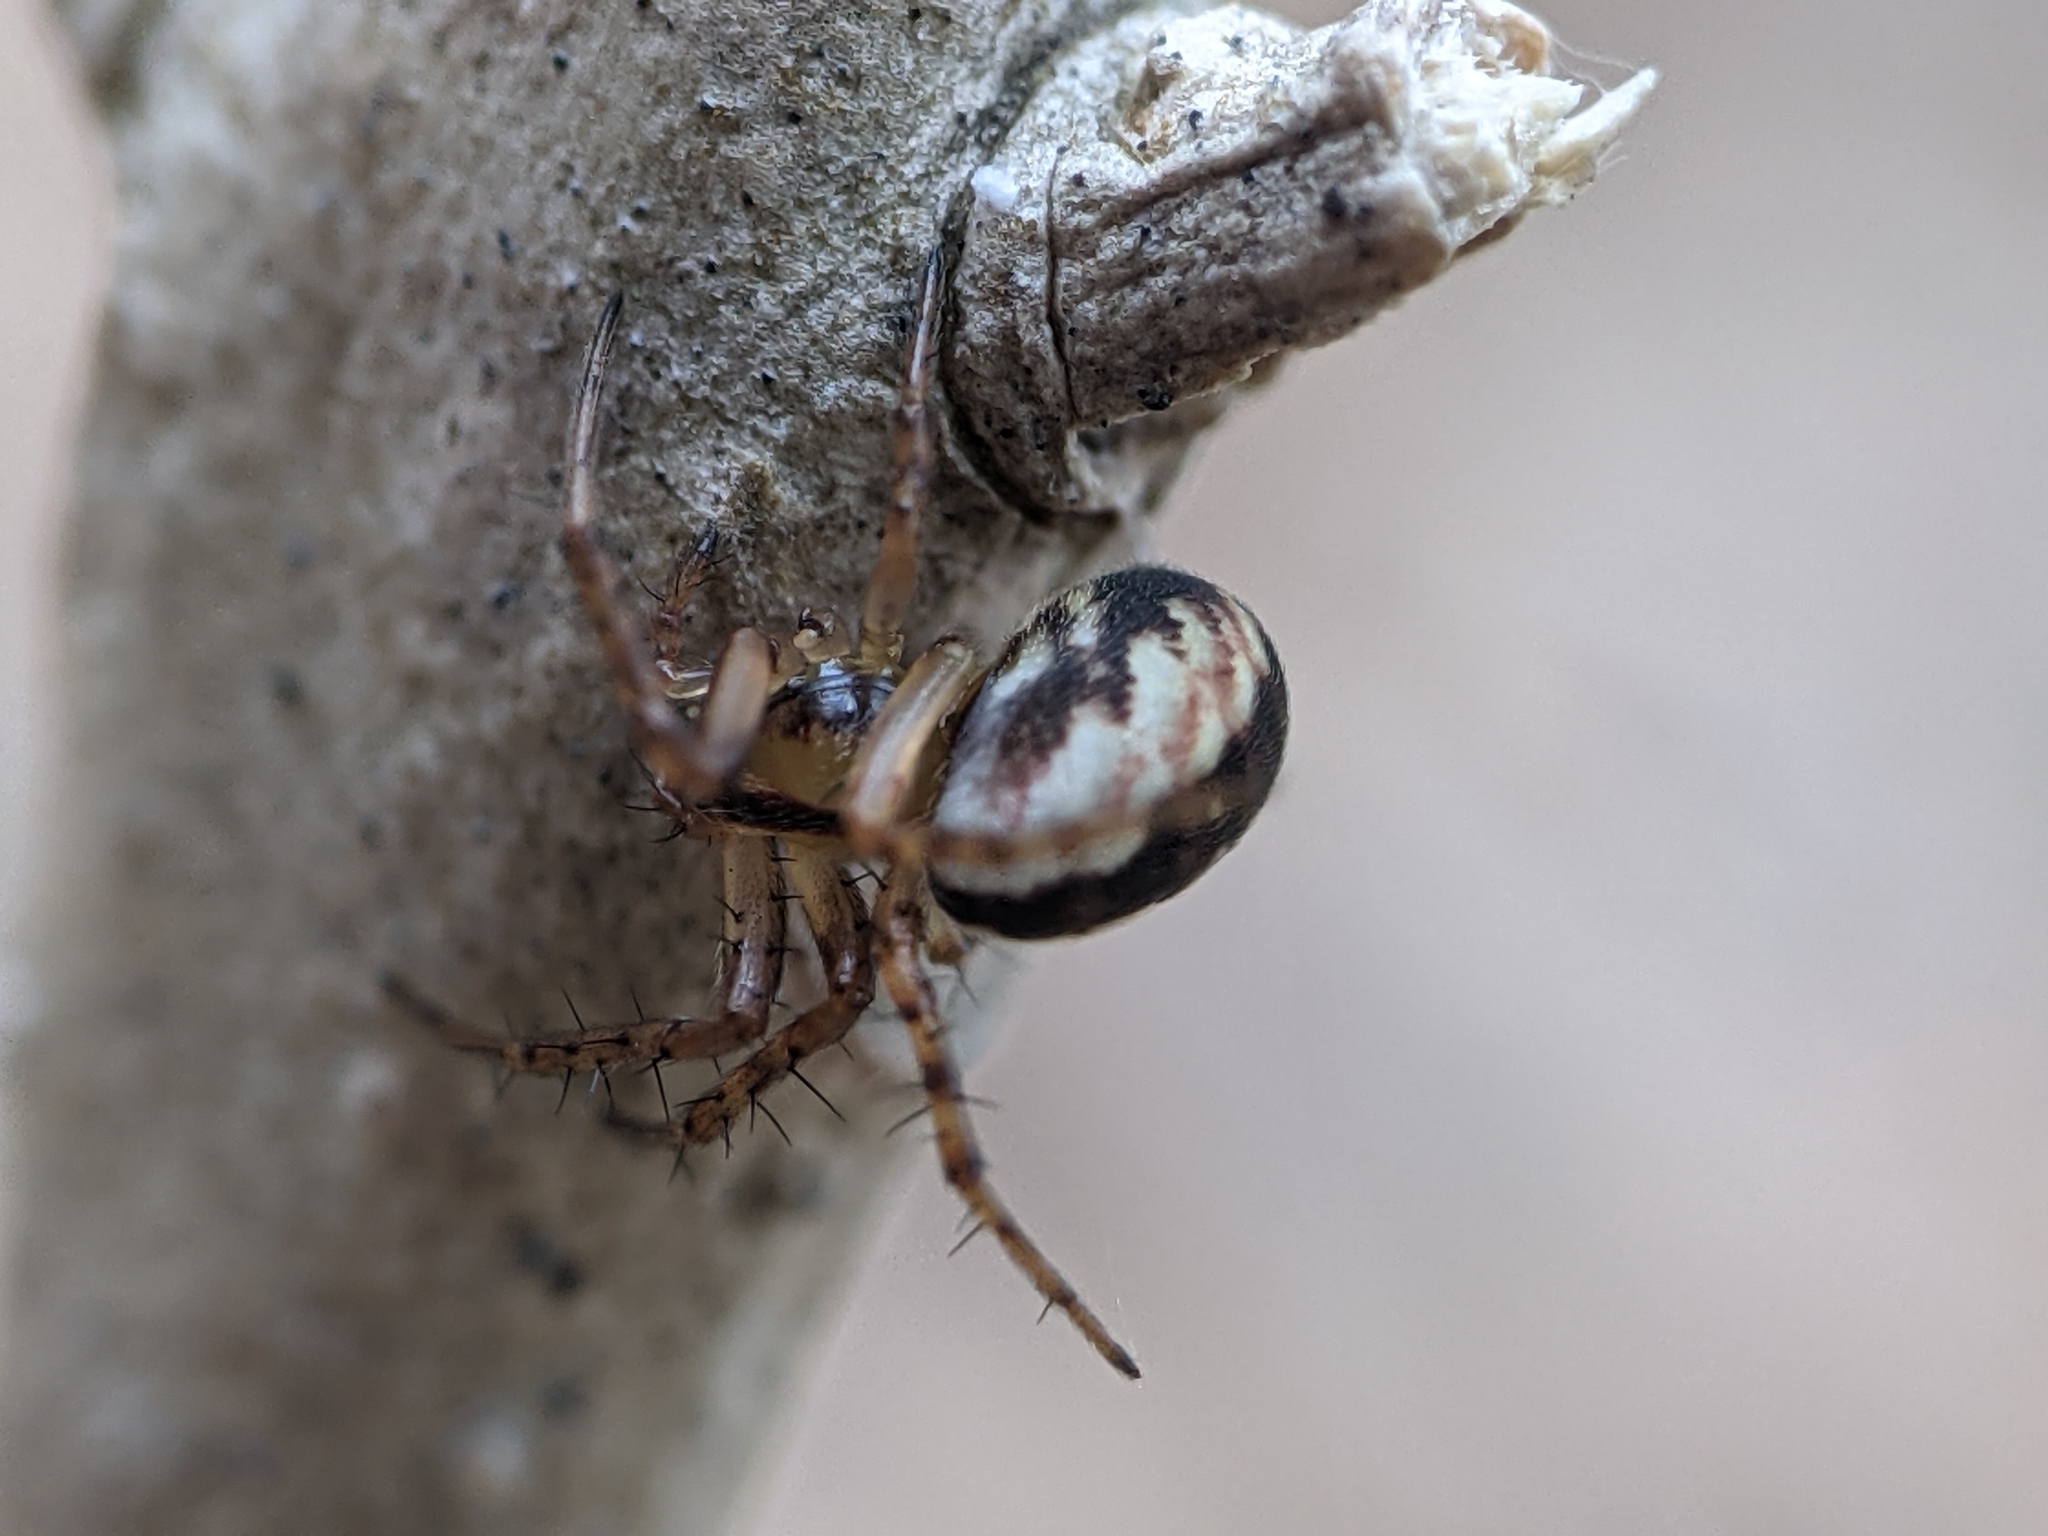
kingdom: Animalia
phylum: Arthropoda
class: Arachnida
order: Araneae
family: Araneidae
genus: Mangora
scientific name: Mangora placida
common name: Tuft-legged orbweaver
